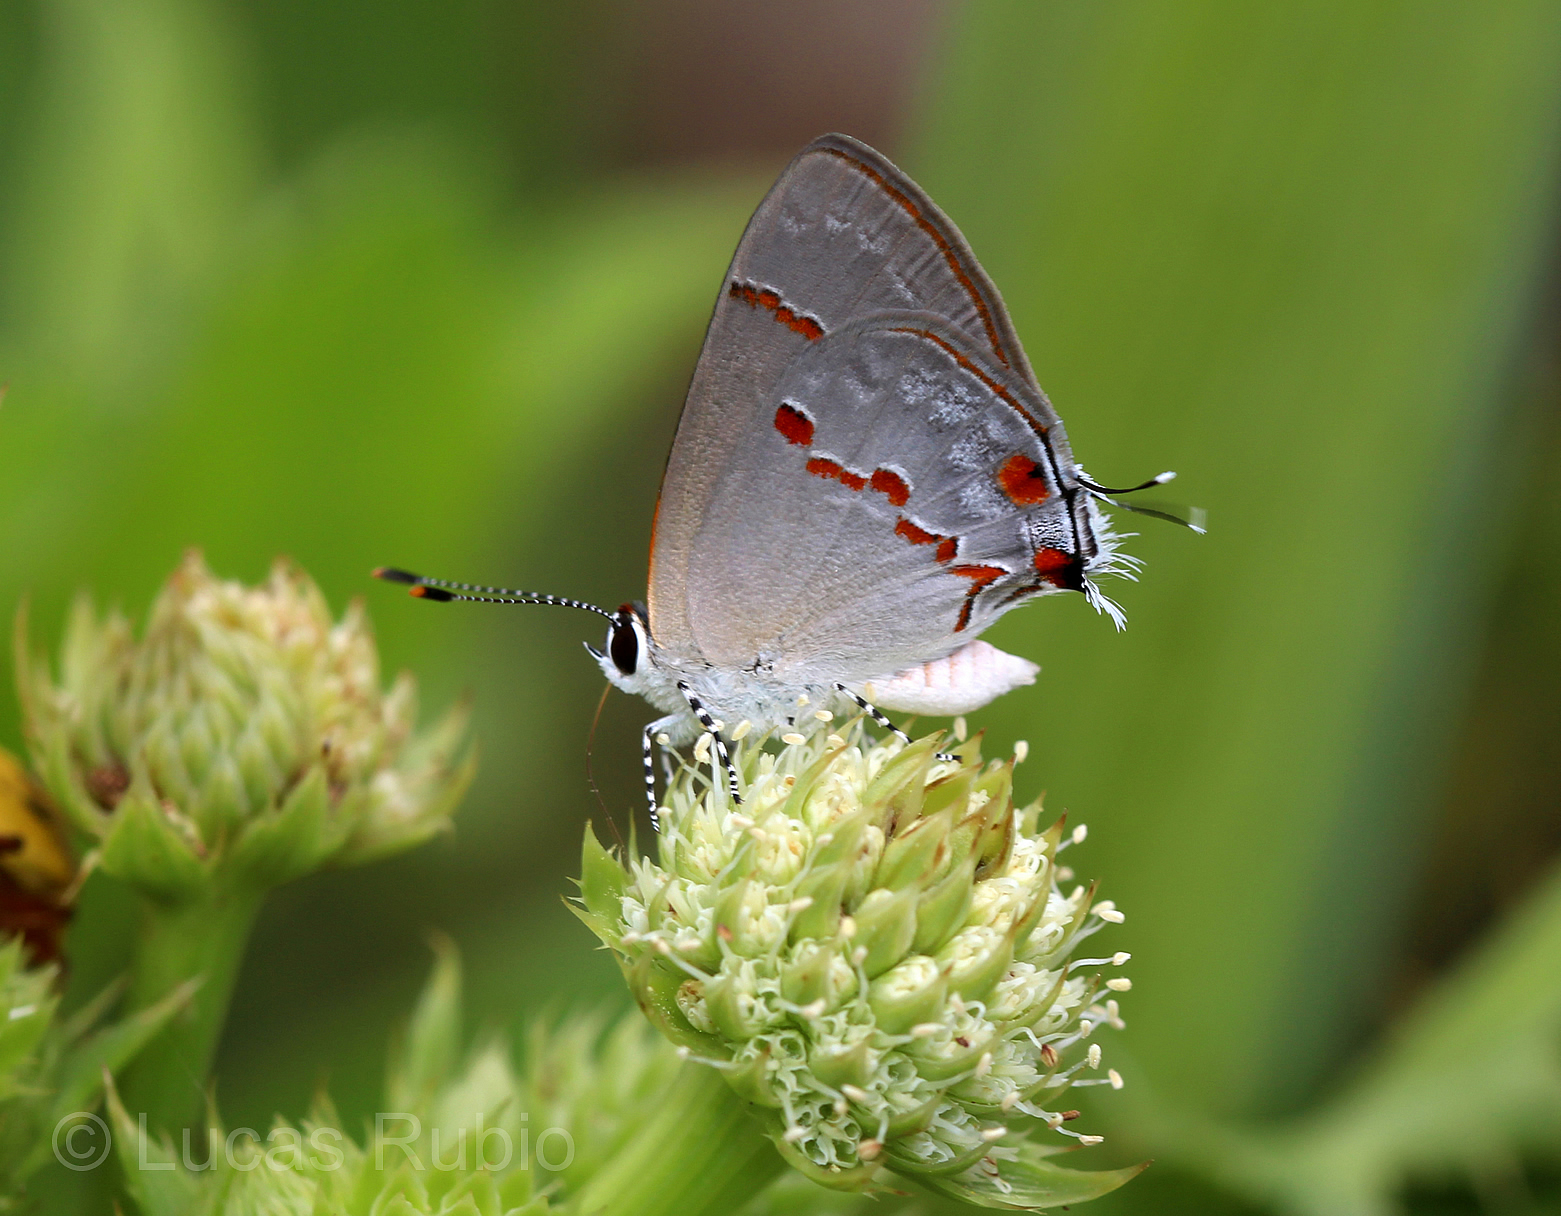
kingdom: Animalia
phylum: Arthropoda
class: Insecta
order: Lepidoptera
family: Lycaenidae
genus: Thecla
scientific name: Thecla azia
